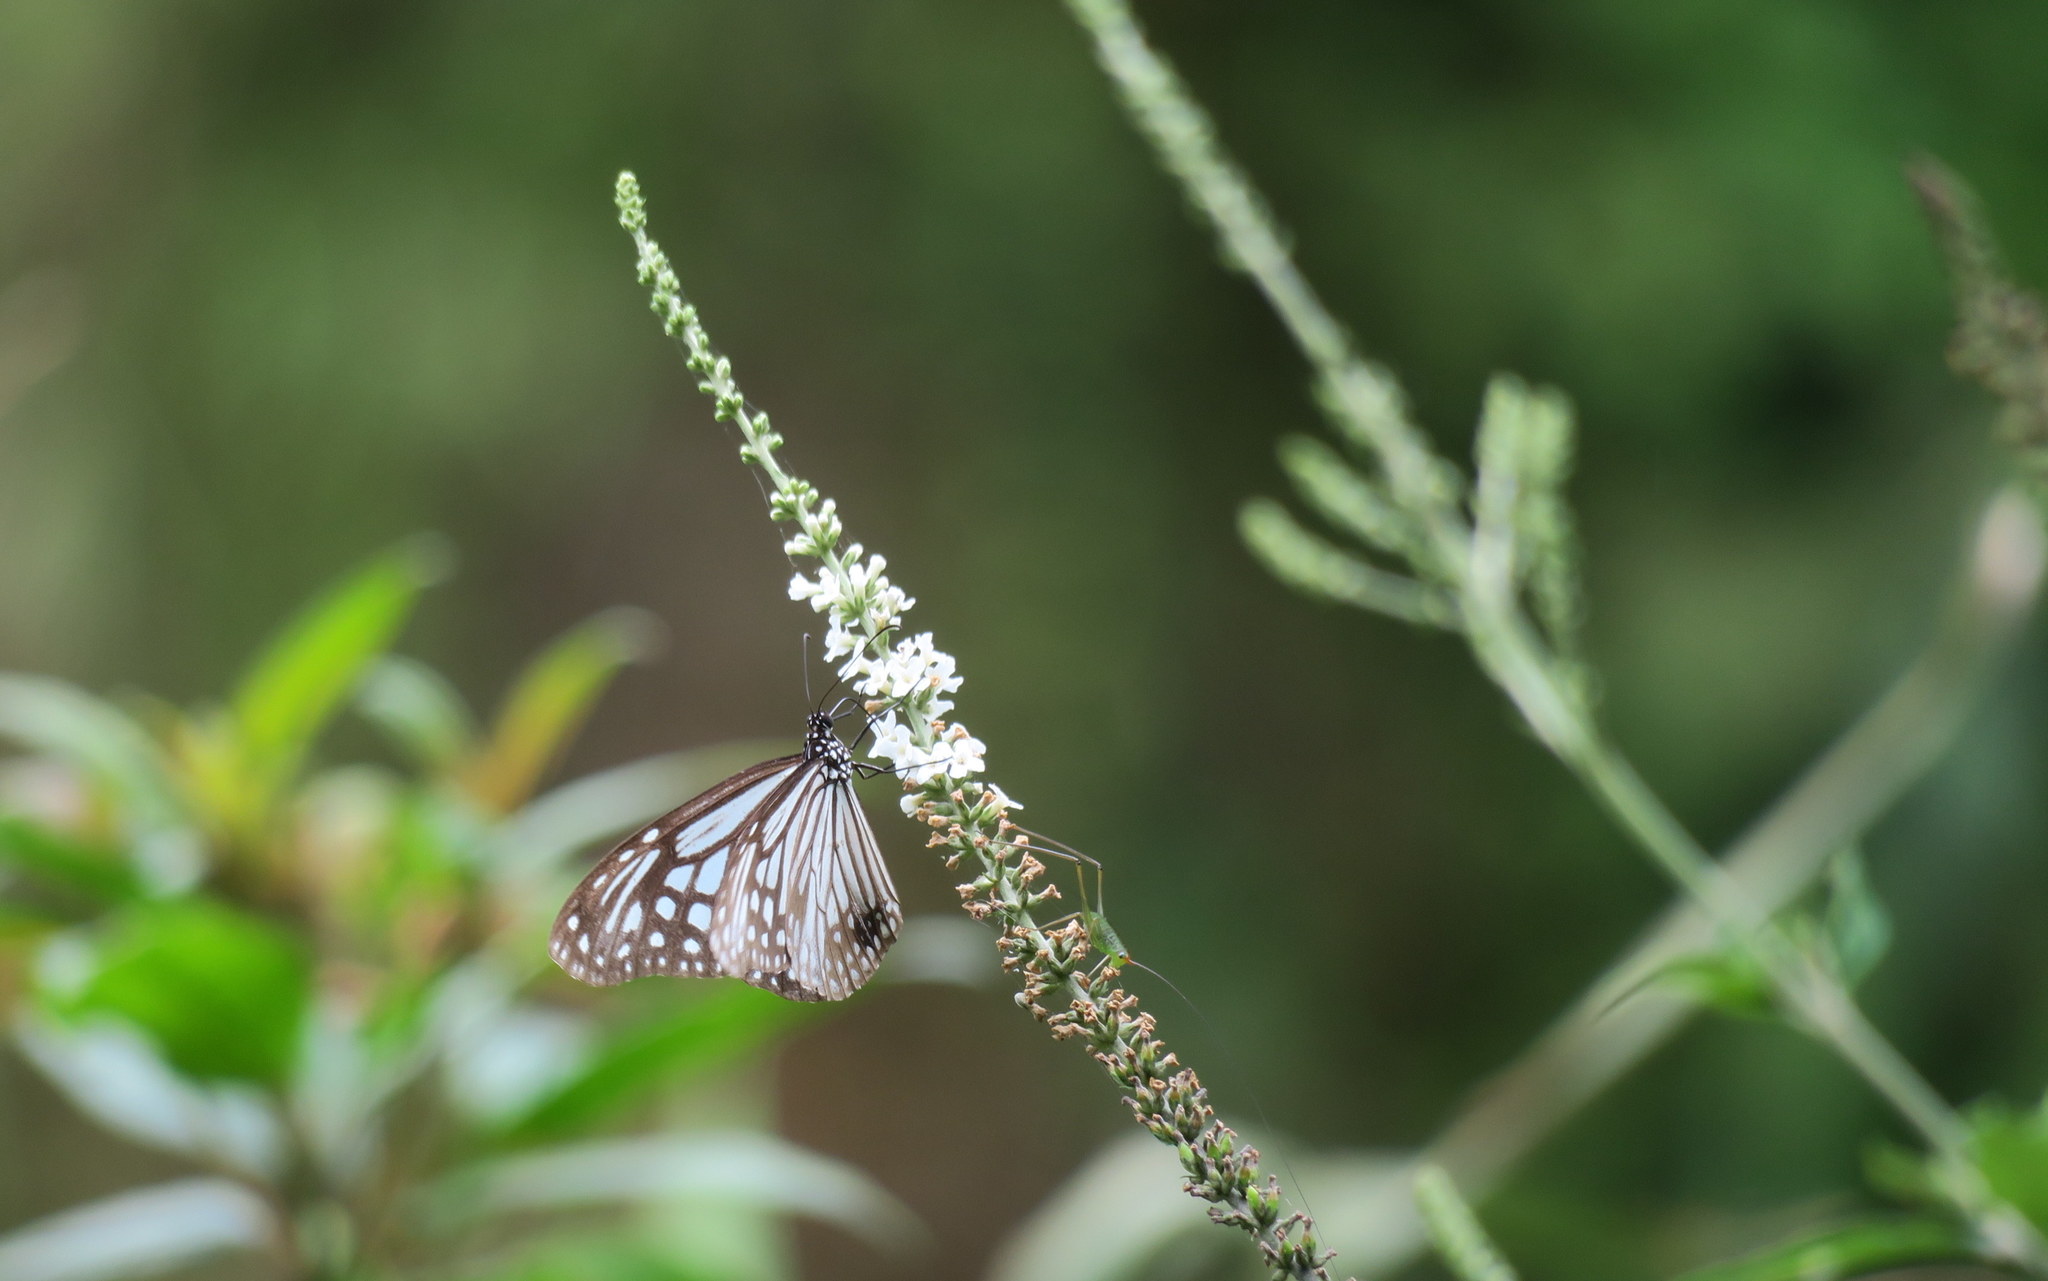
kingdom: Animalia
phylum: Arthropoda
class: Insecta
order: Lepidoptera
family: Nymphalidae
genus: Parantica
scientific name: Parantica aglea
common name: Glassy tiger
